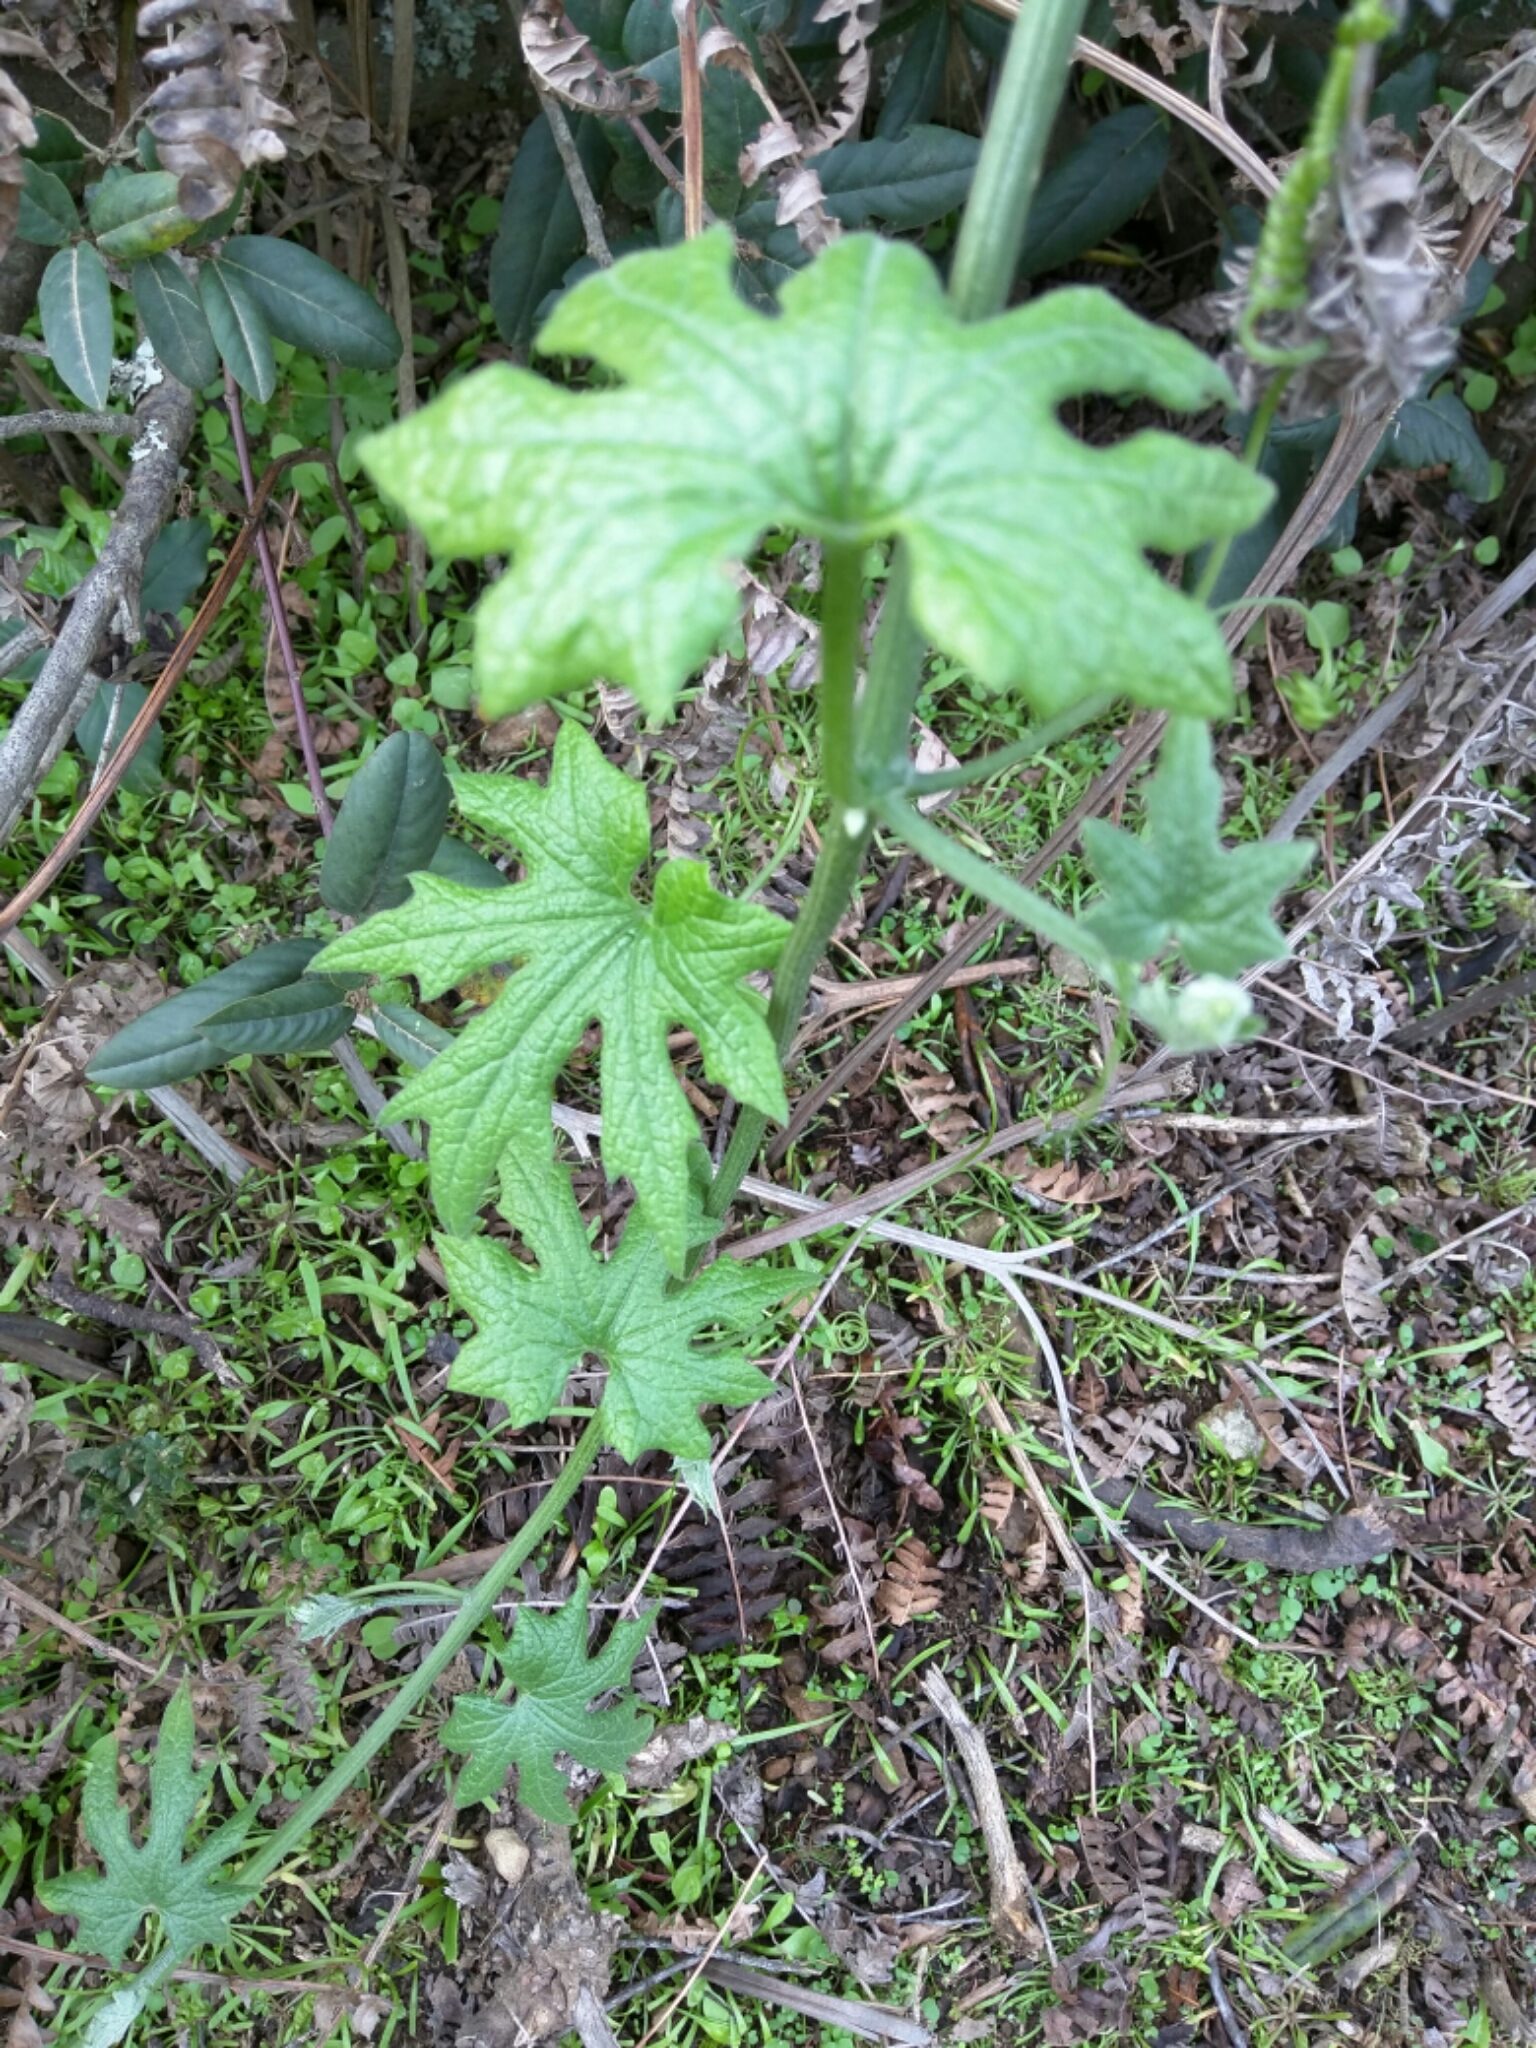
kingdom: Plantae
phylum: Tracheophyta
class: Magnoliopsida
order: Cucurbitales
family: Cucurbitaceae
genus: Marah
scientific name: Marah oregana
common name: Coastal manroot
